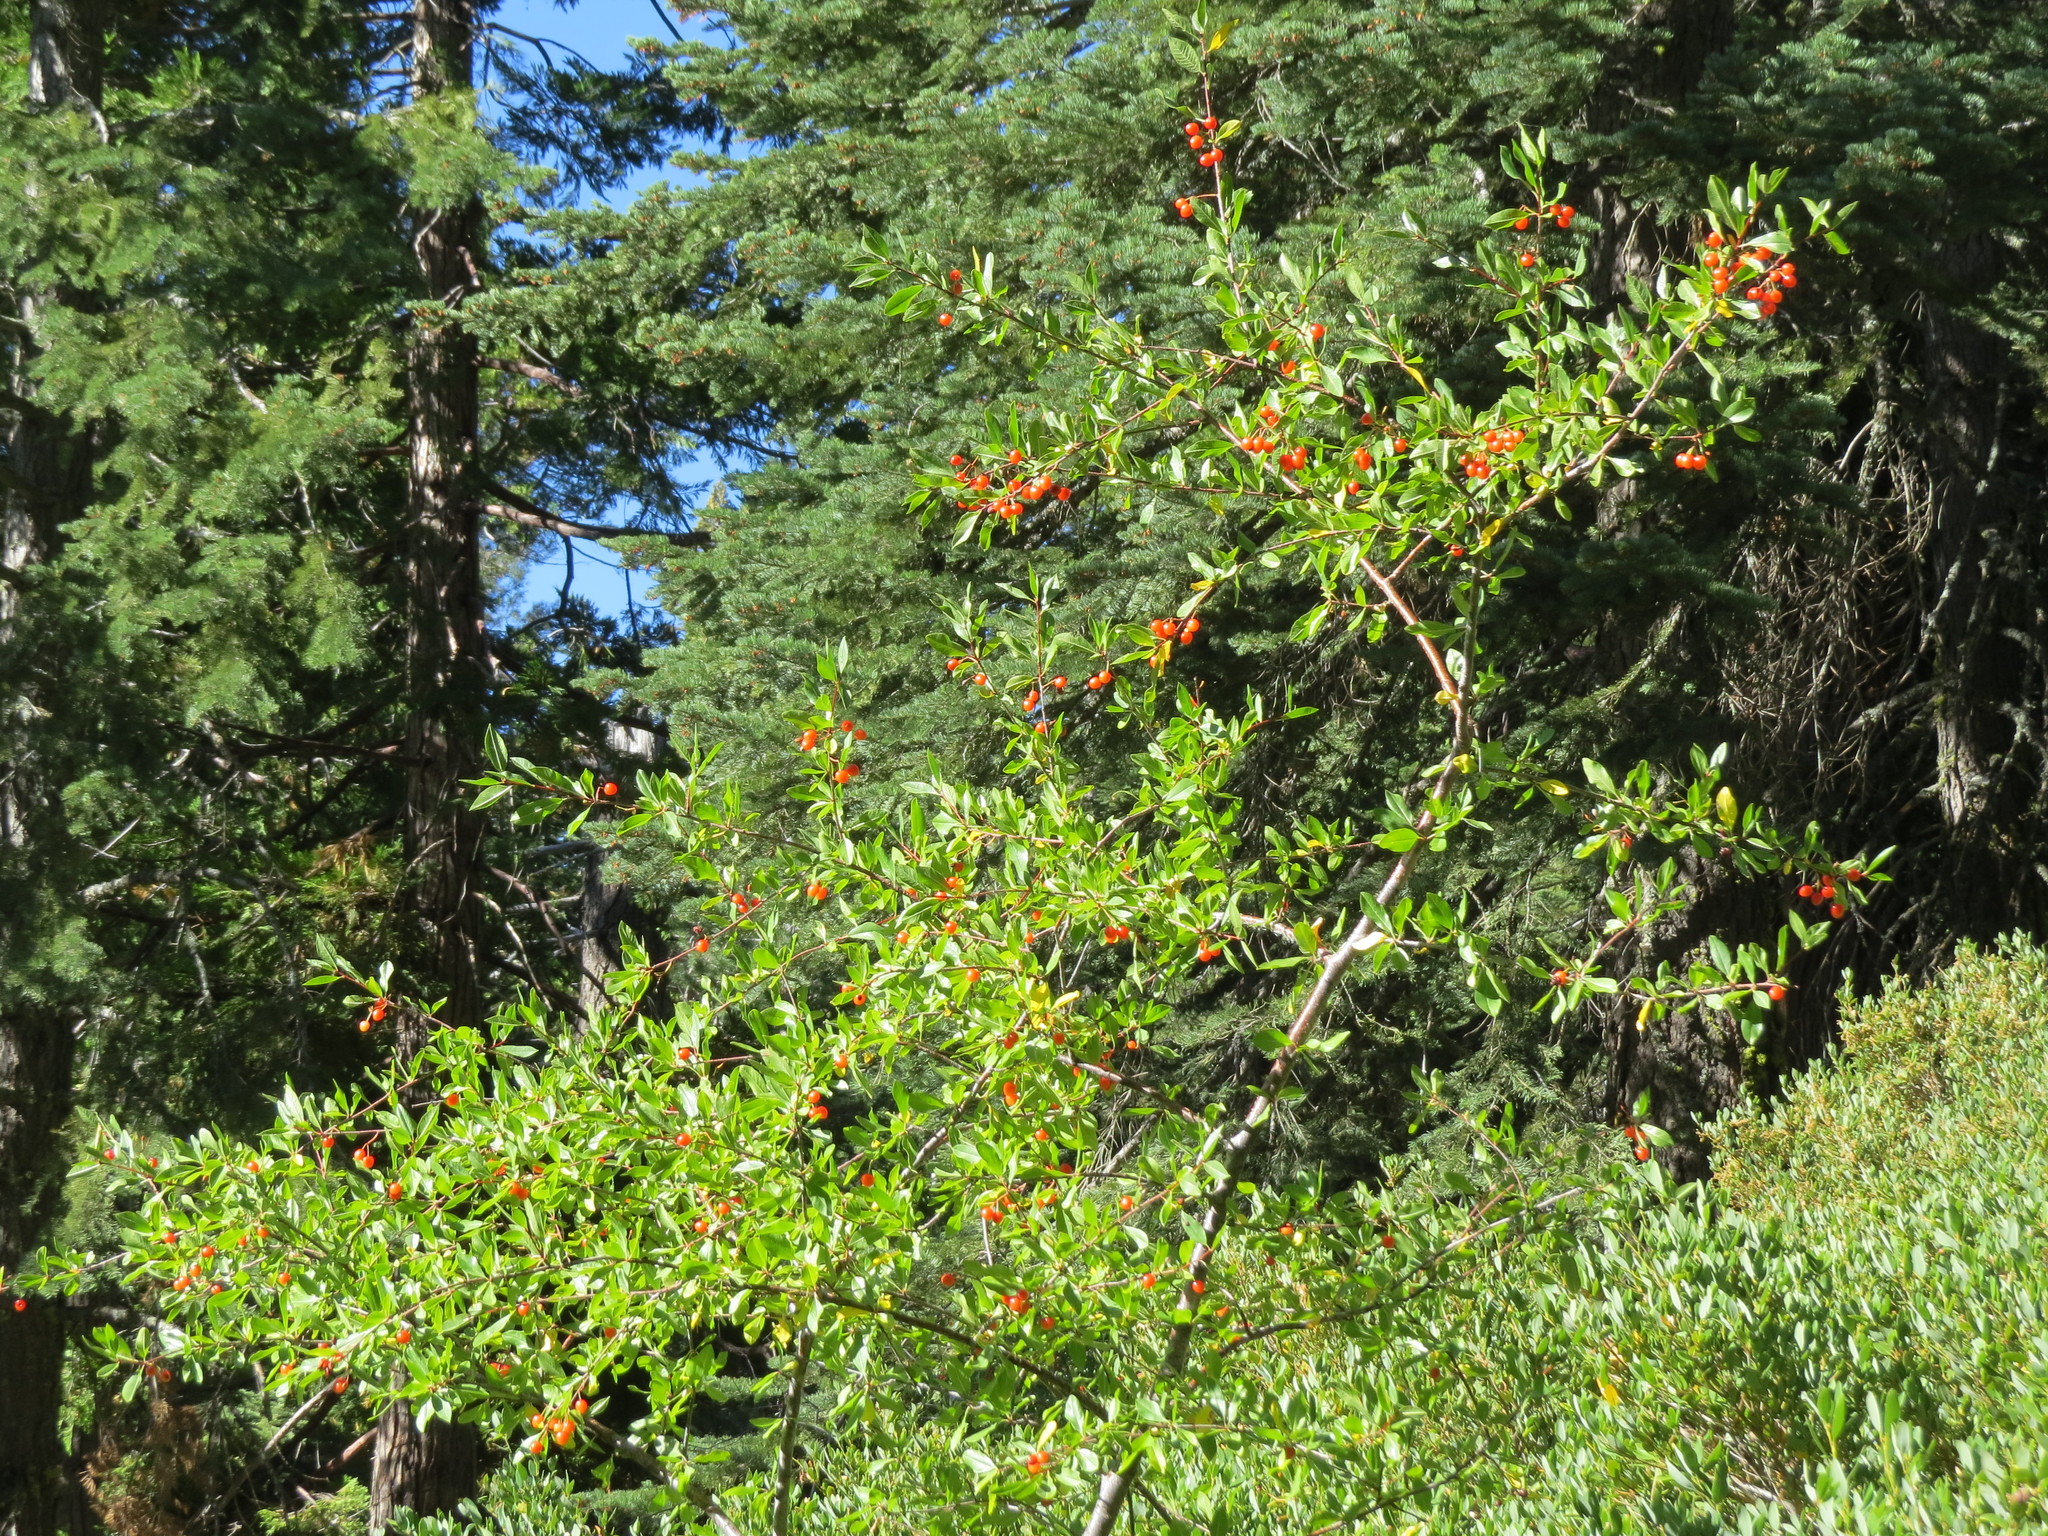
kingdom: Plantae
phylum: Tracheophyta
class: Magnoliopsida
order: Rosales
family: Rosaceae
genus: Prunus
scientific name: Prunus emarginata
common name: Bitter cherry
